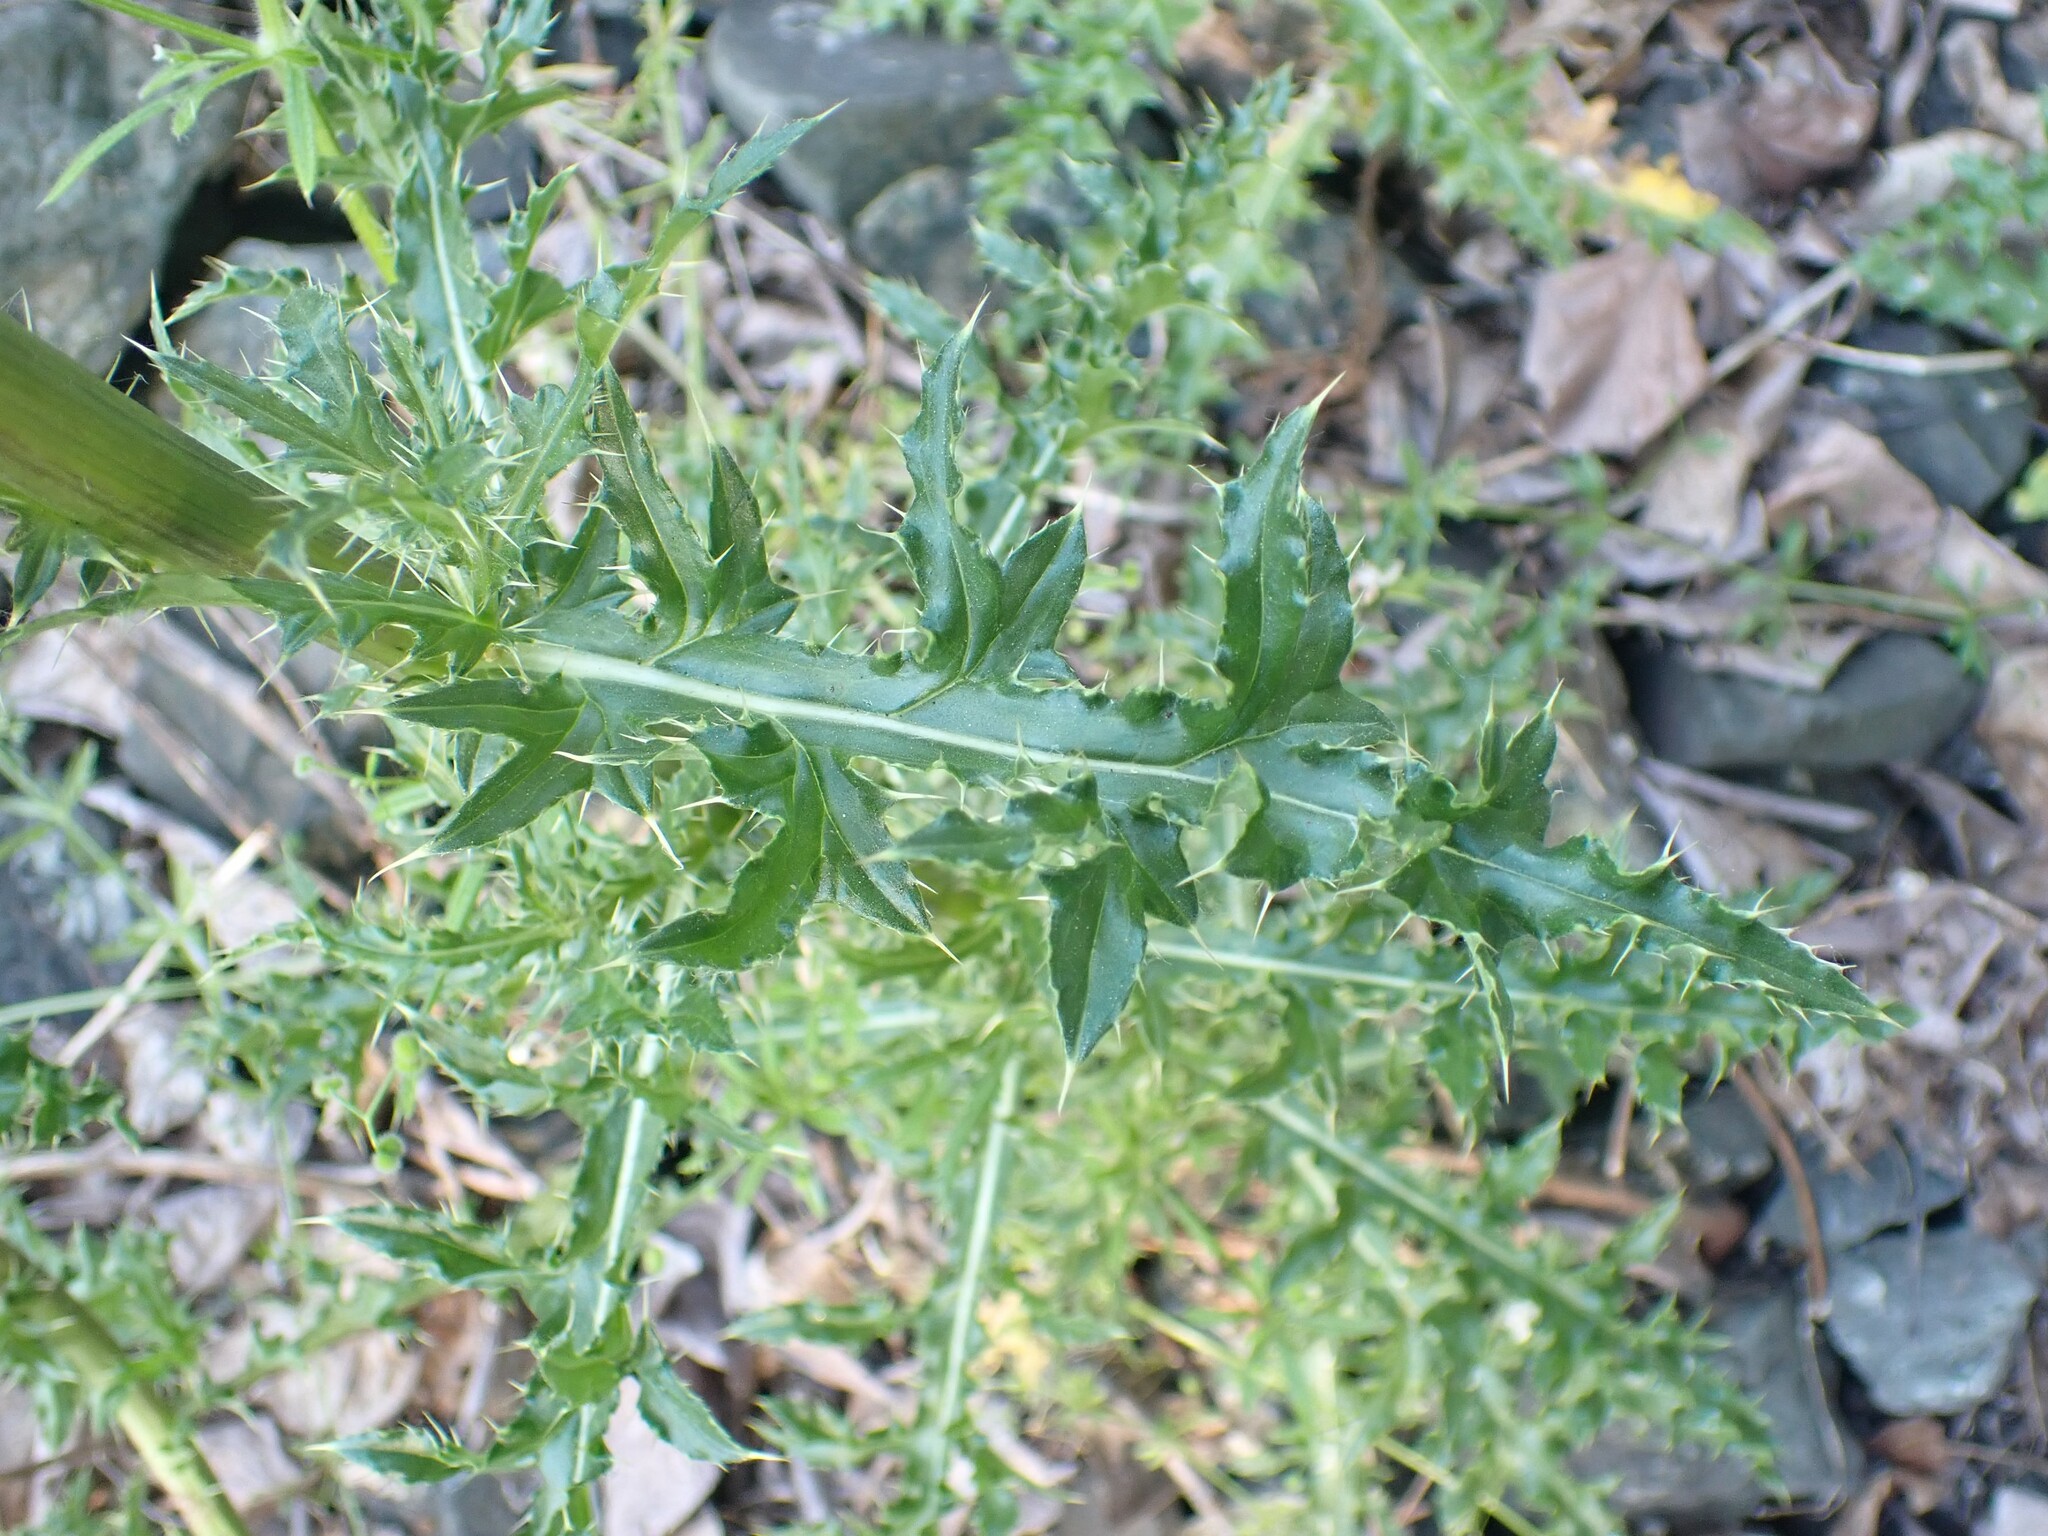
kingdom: Plantae
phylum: Tracheophyta
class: Magnoliopsida
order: Asterales
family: Asteraceae
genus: Cirsium
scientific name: Cirsium arvense
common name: Creeping thistle
